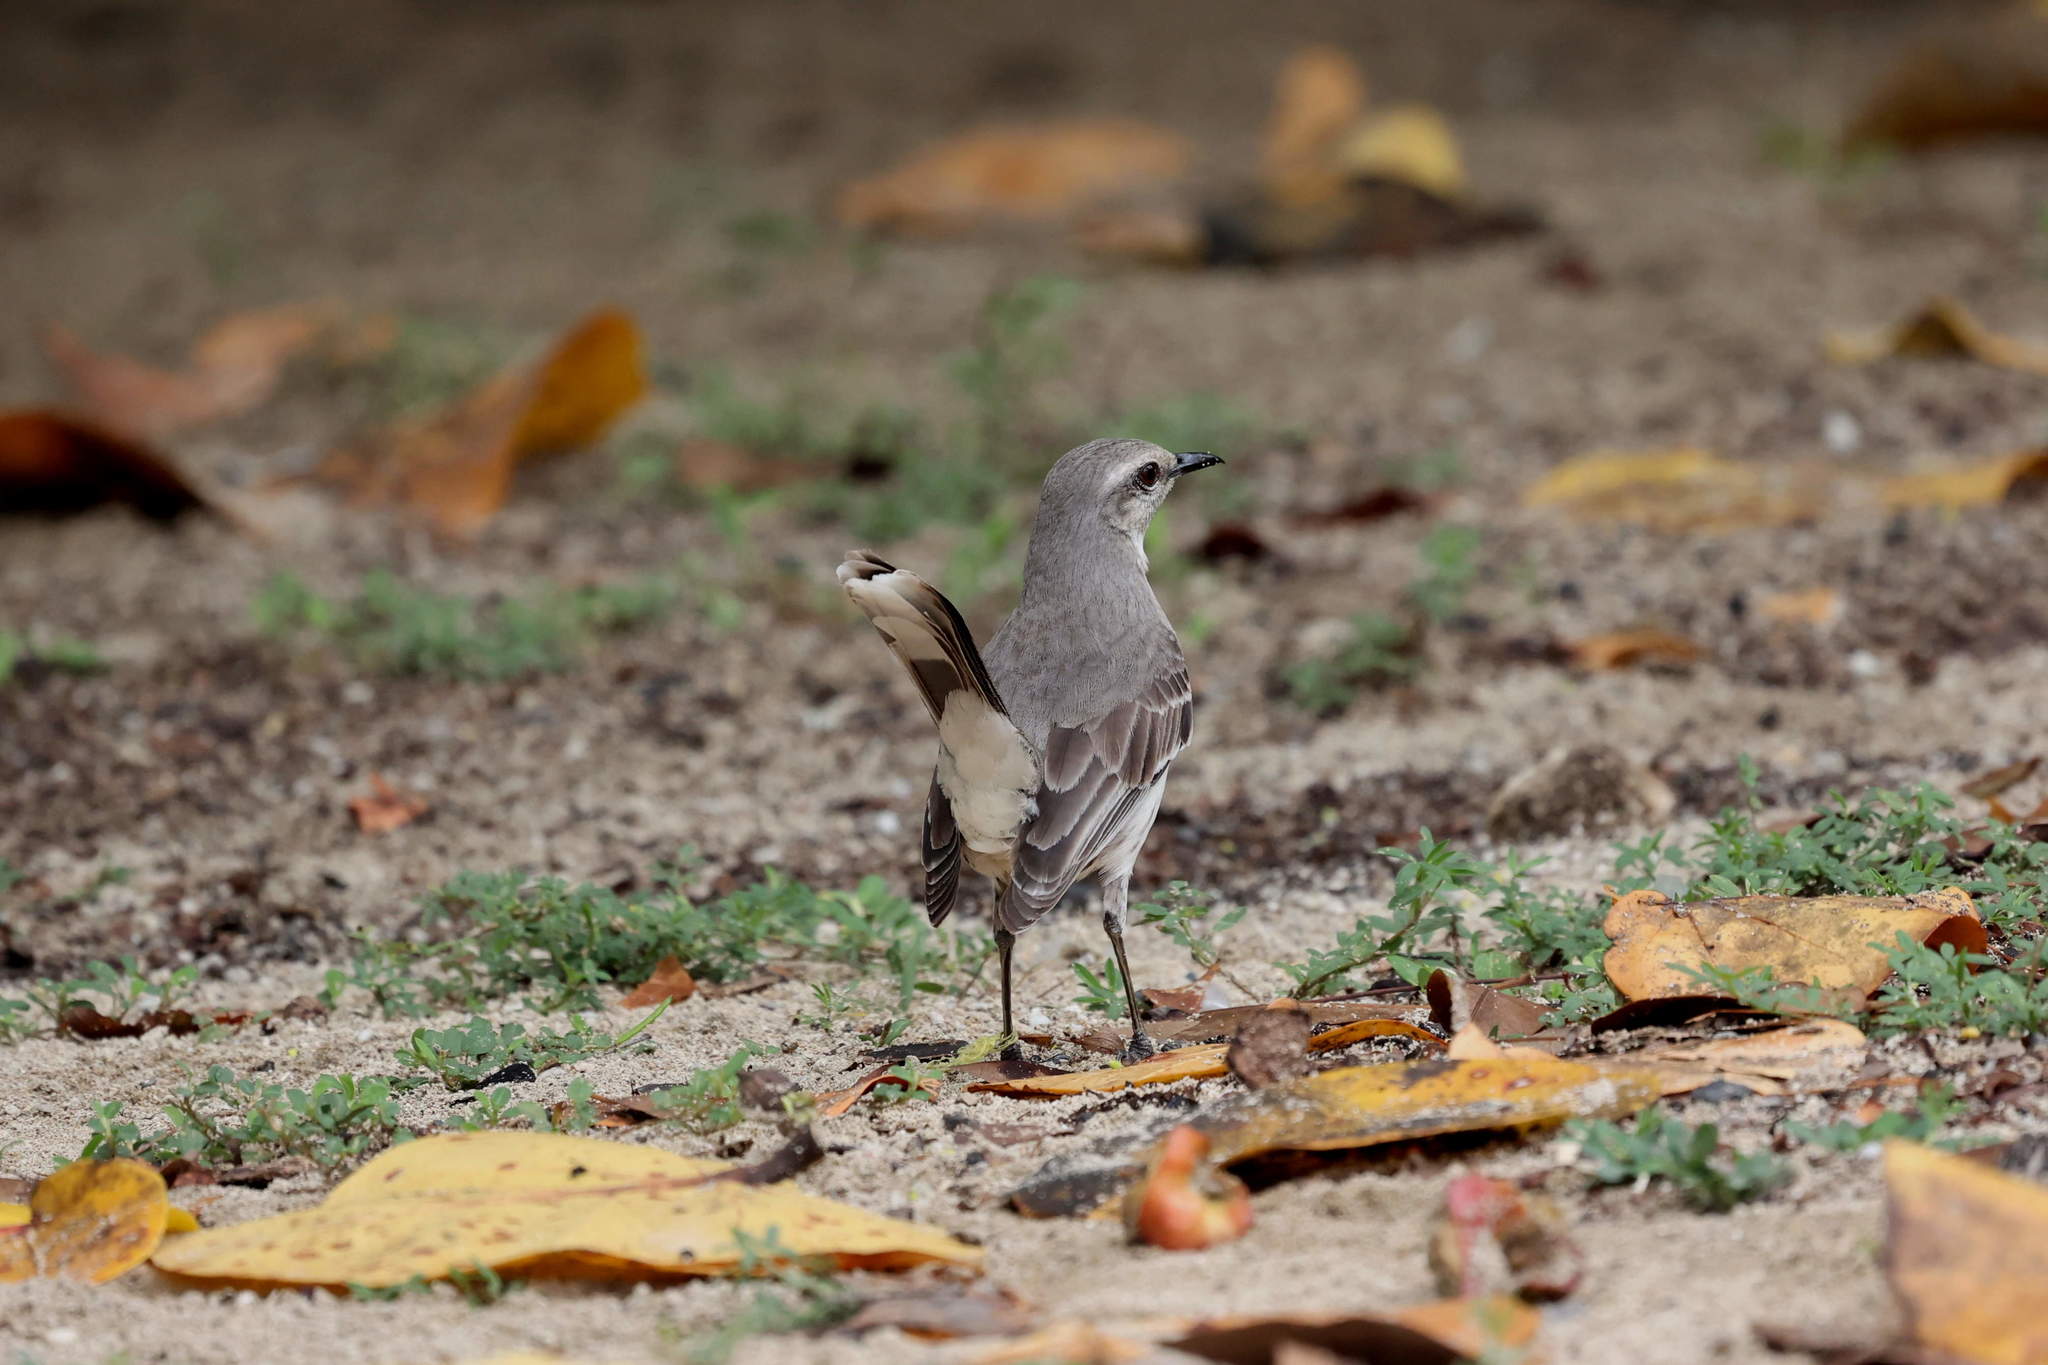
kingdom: Animalia
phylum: Chordata
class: Aves
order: Passeriformes
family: Mimidae
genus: Mimus
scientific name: Mimus gilvus
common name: Tropical mockingbird
